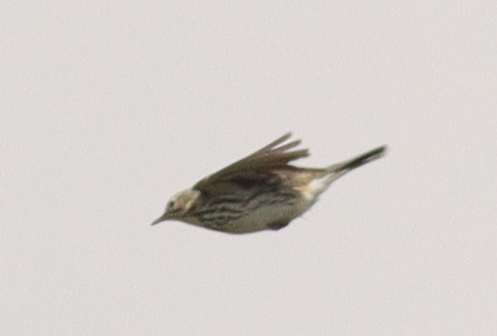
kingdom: Animalia
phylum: Chordata
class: Aves
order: Passeriformes
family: Motacillidae
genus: Anthus
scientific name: Anthus pratensis
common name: Meadow pipit
